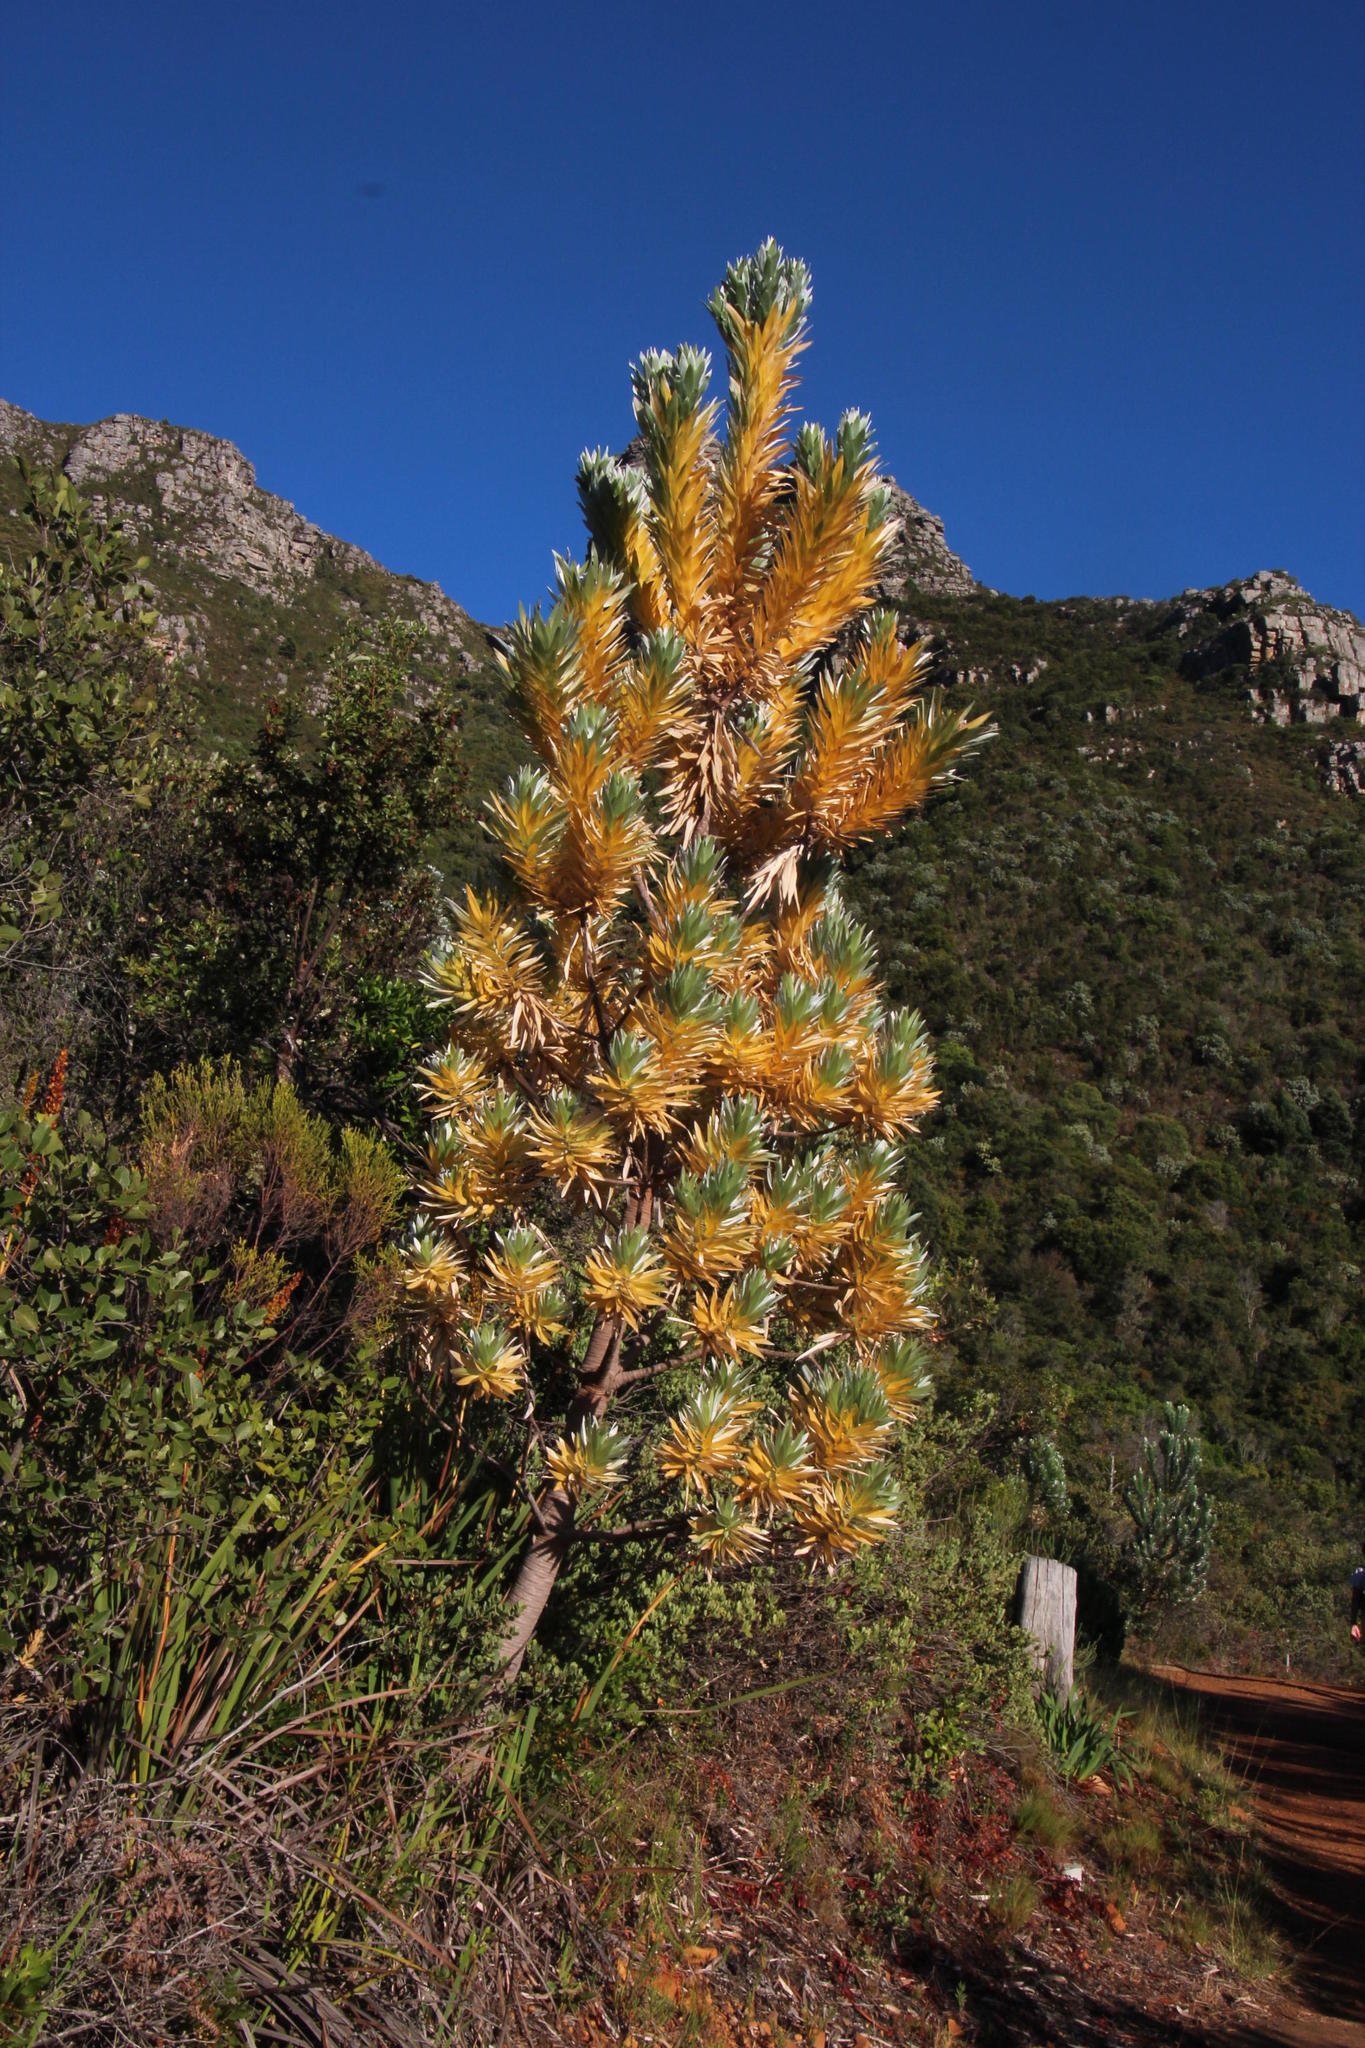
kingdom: Plantae
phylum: Tracheophyta
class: Magnoliopsida
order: Proteales
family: Proteaceae
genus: Leucadendron
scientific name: Leucadendron argenteum
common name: Cape silver tree
